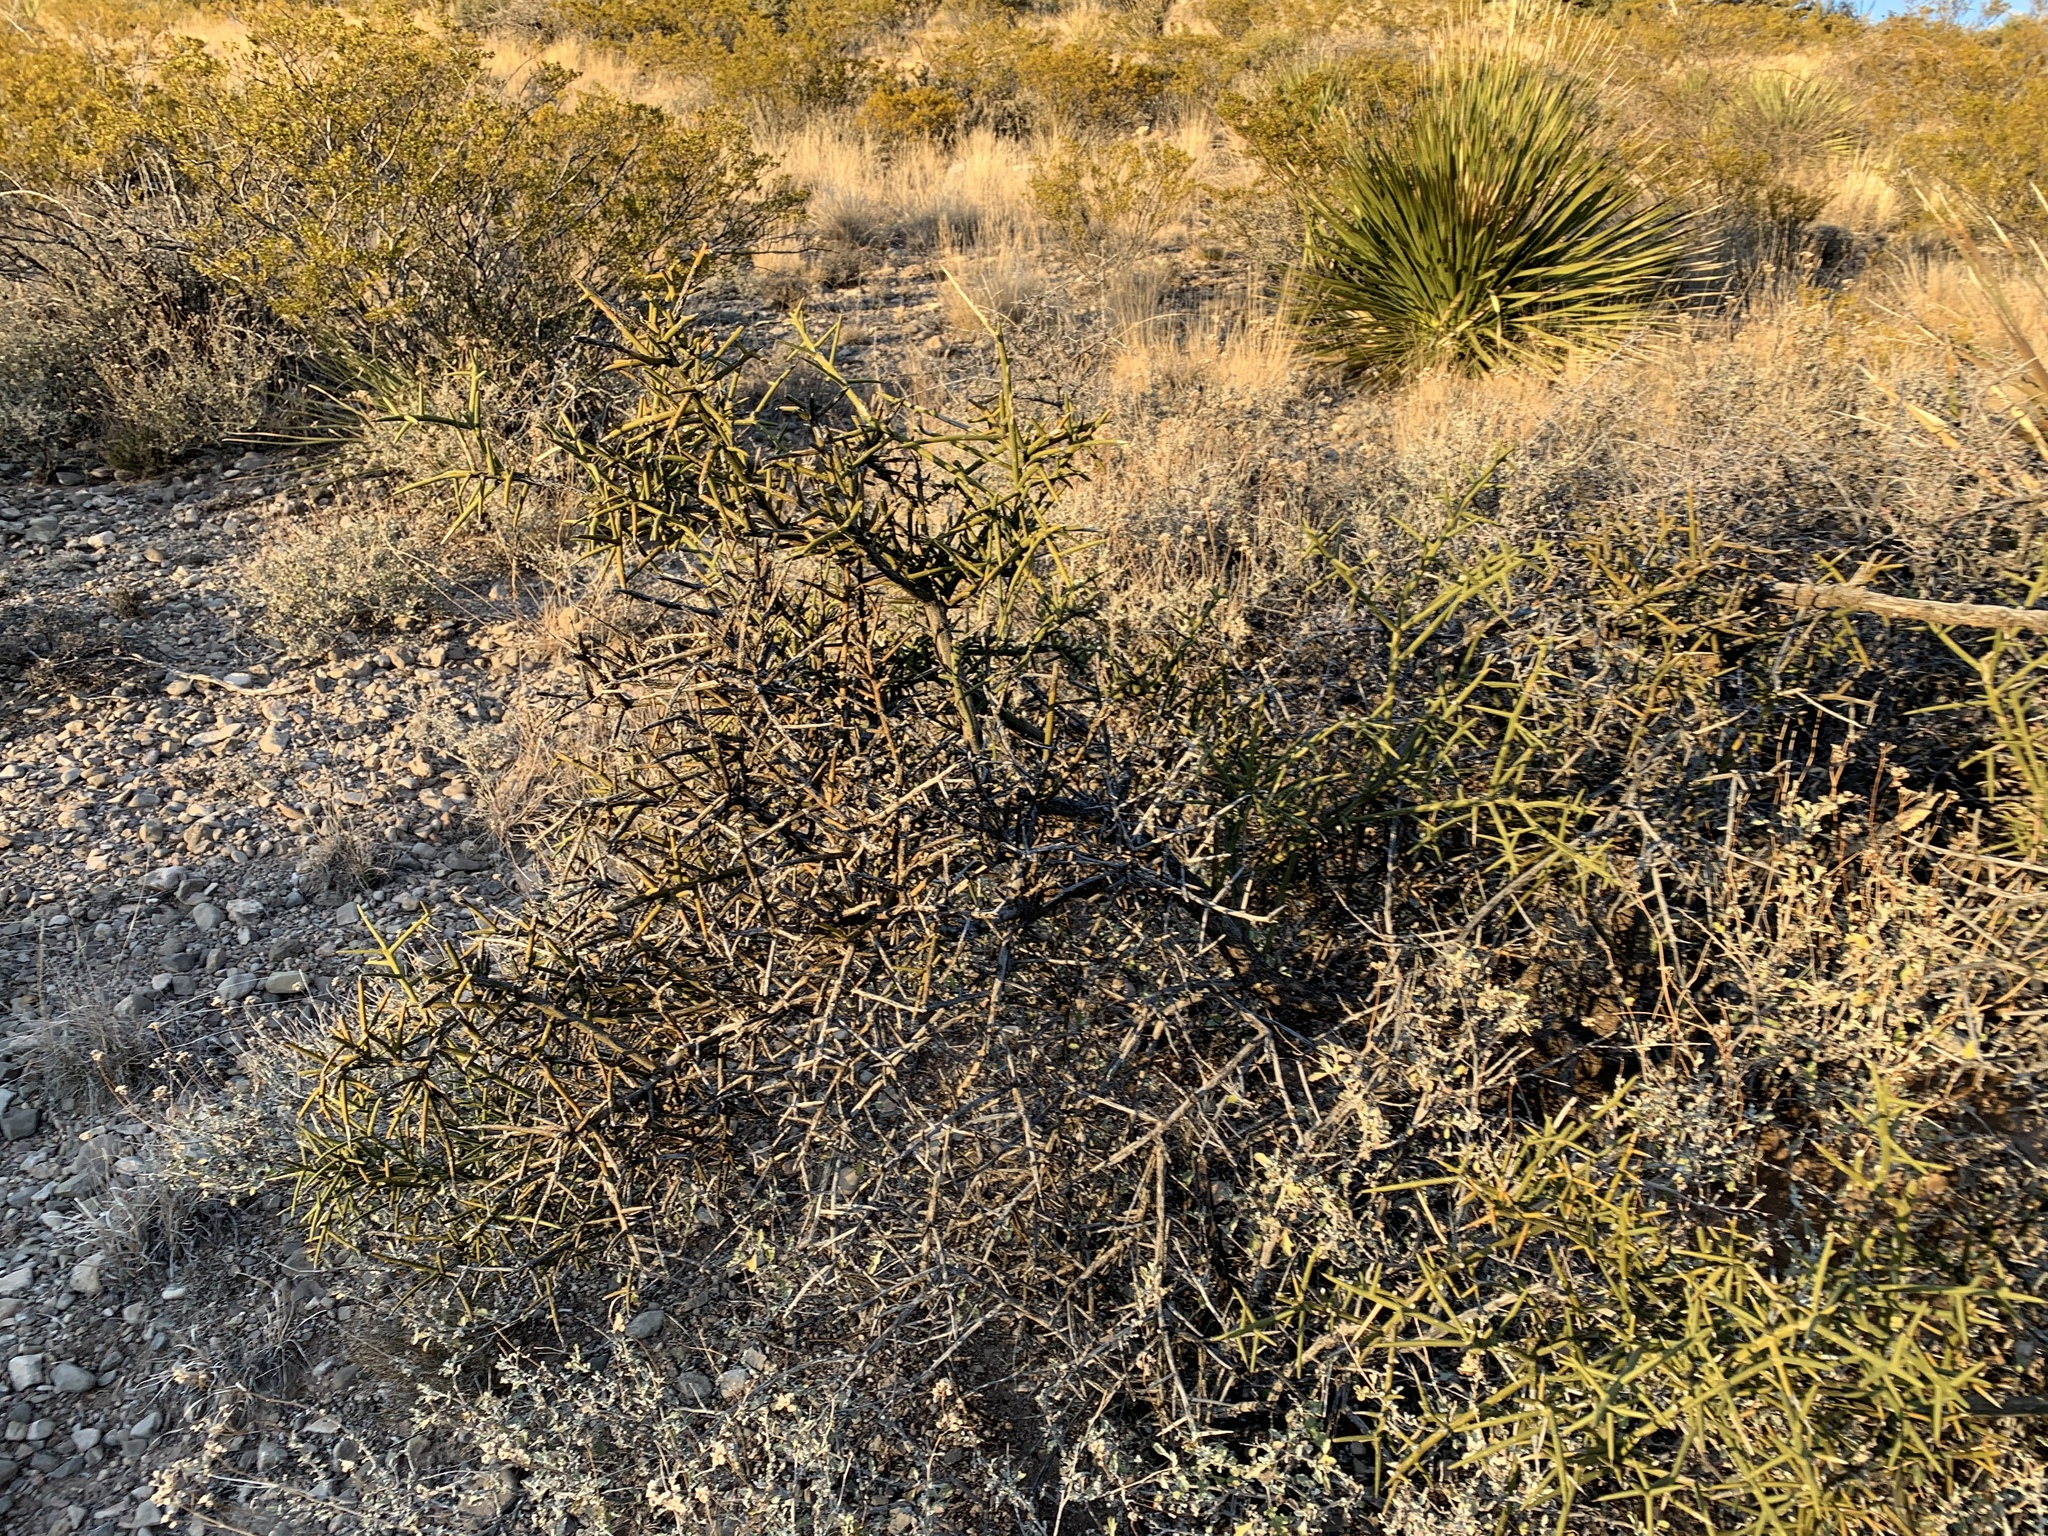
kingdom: Plantae
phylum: Tracheophyta
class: Magnoliopsida
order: Brassicales
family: Koeberliniaceae
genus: Koeberlinia
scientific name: Koeberlinia spinosa
